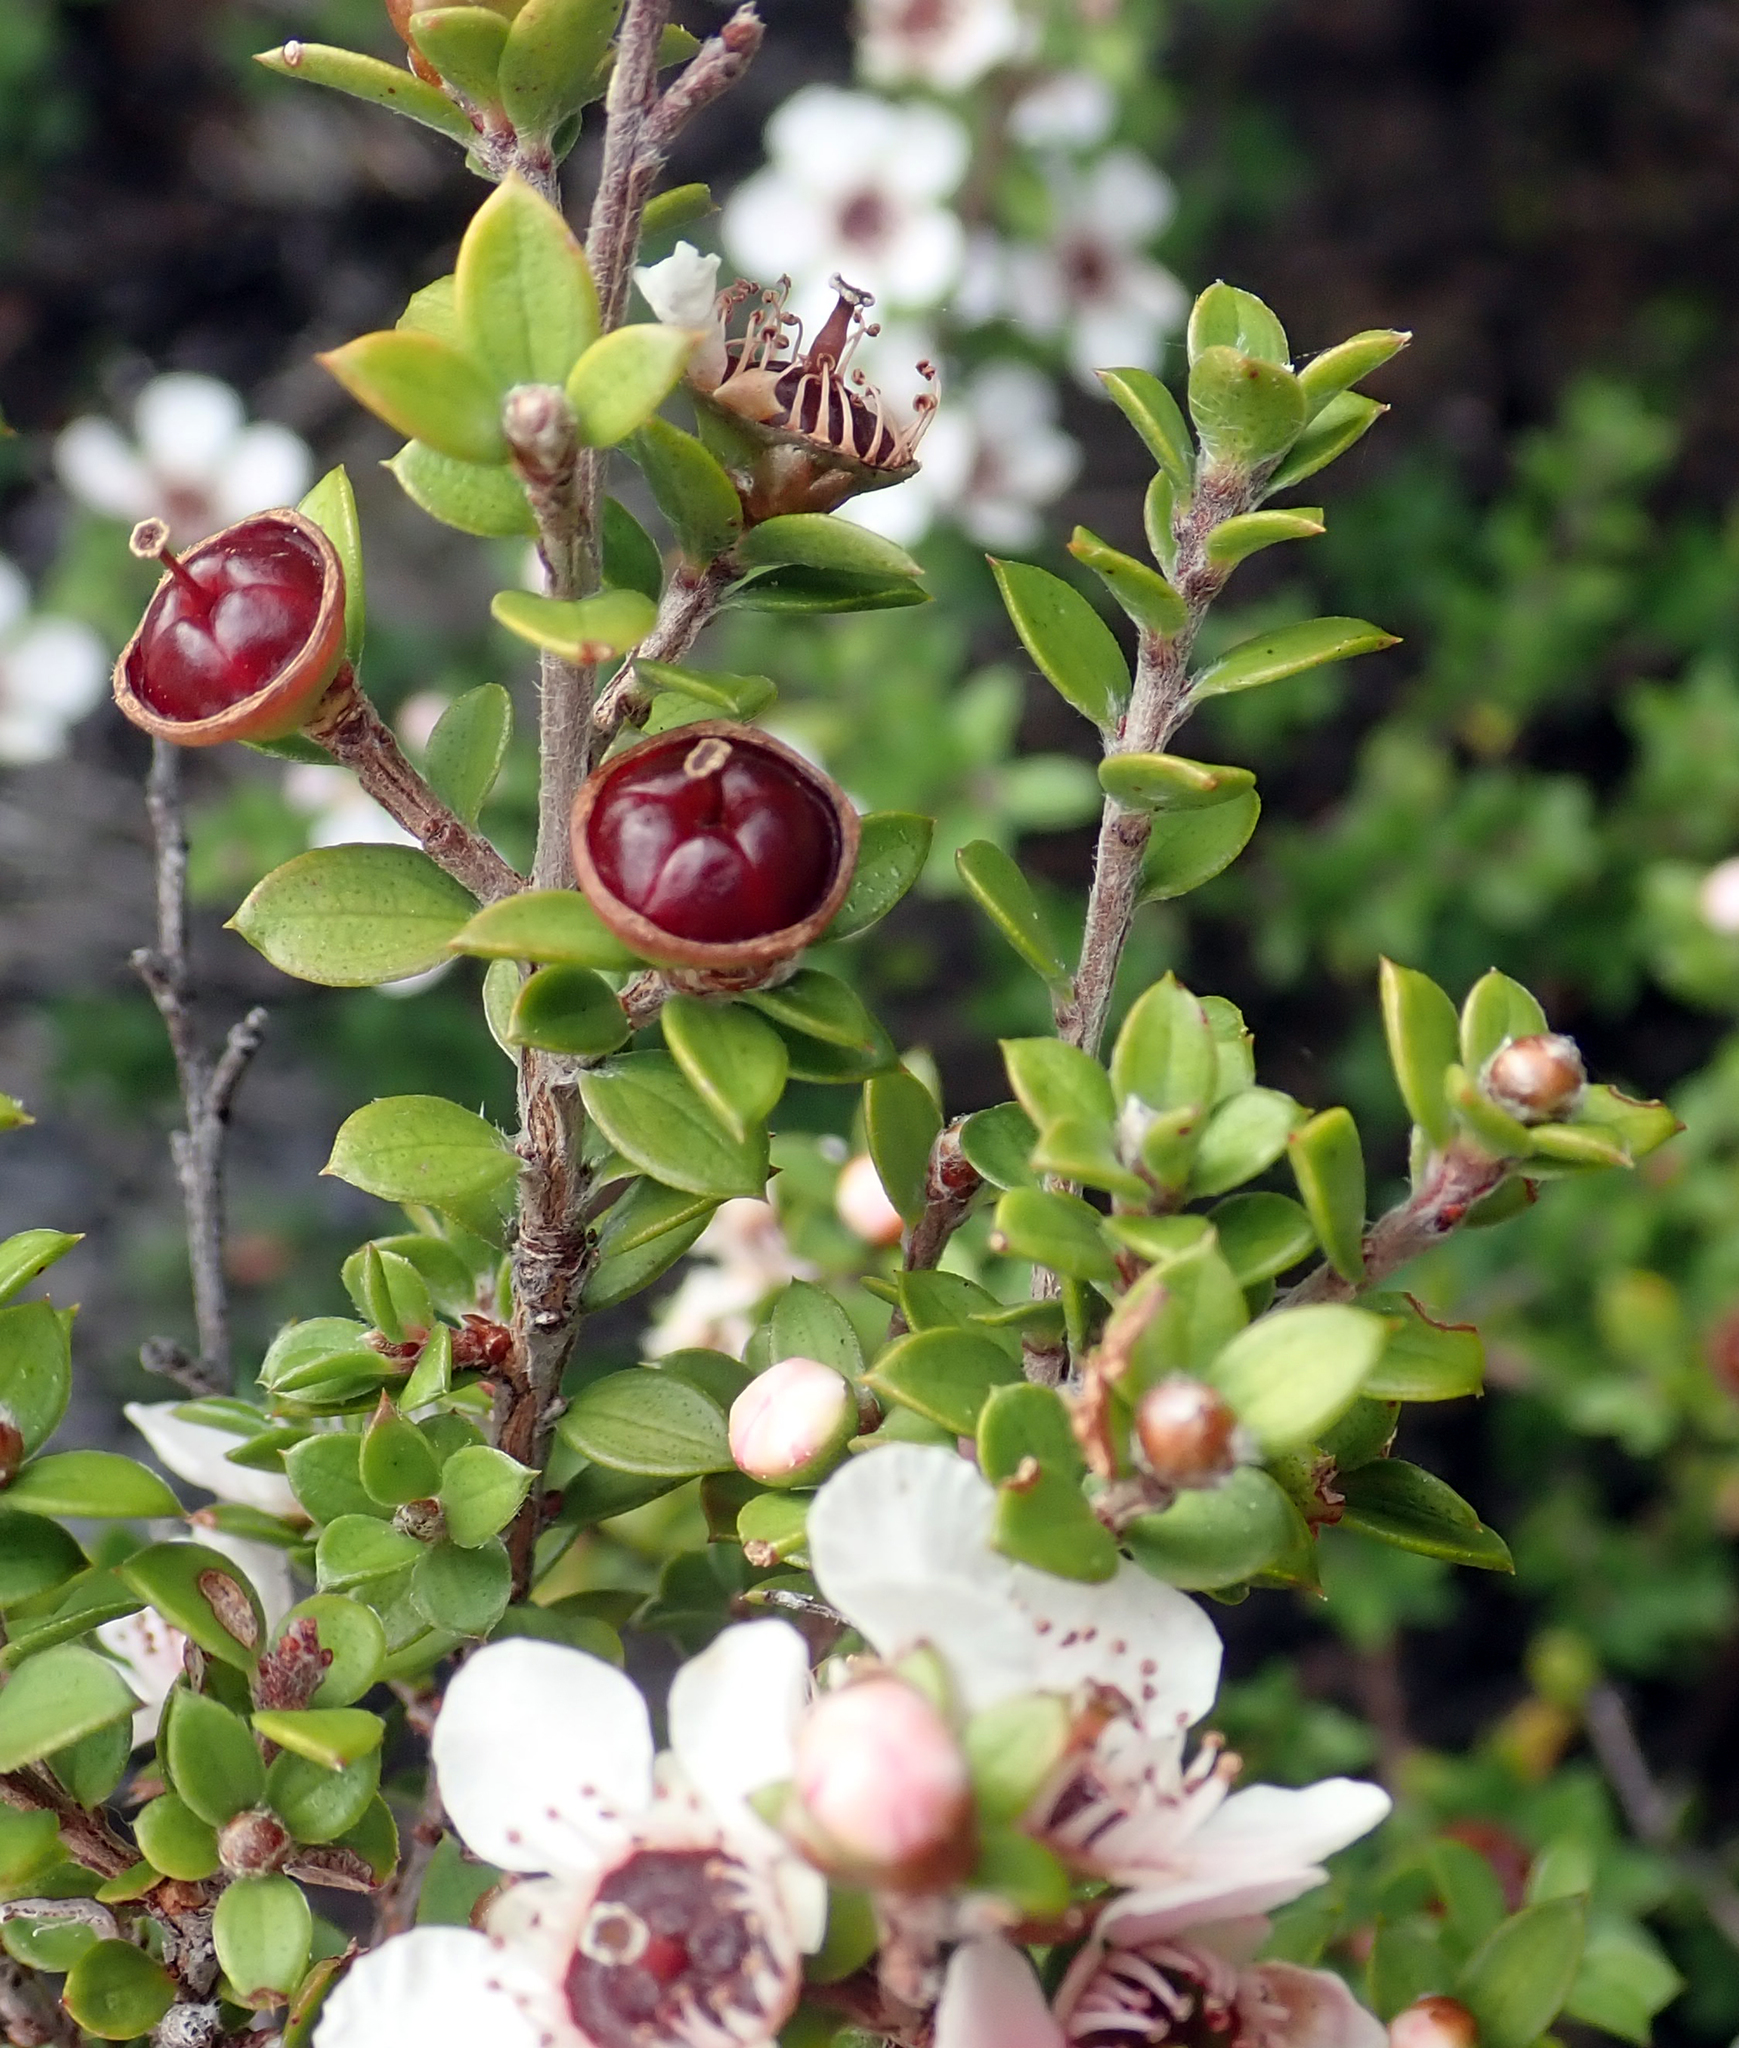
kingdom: Plantae
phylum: Tracheophyta
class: Magnoliopsida
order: Myrtales
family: Myrtaceae
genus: Leptospermum
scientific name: Leptospermum scoparium
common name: Broom tea-tree
